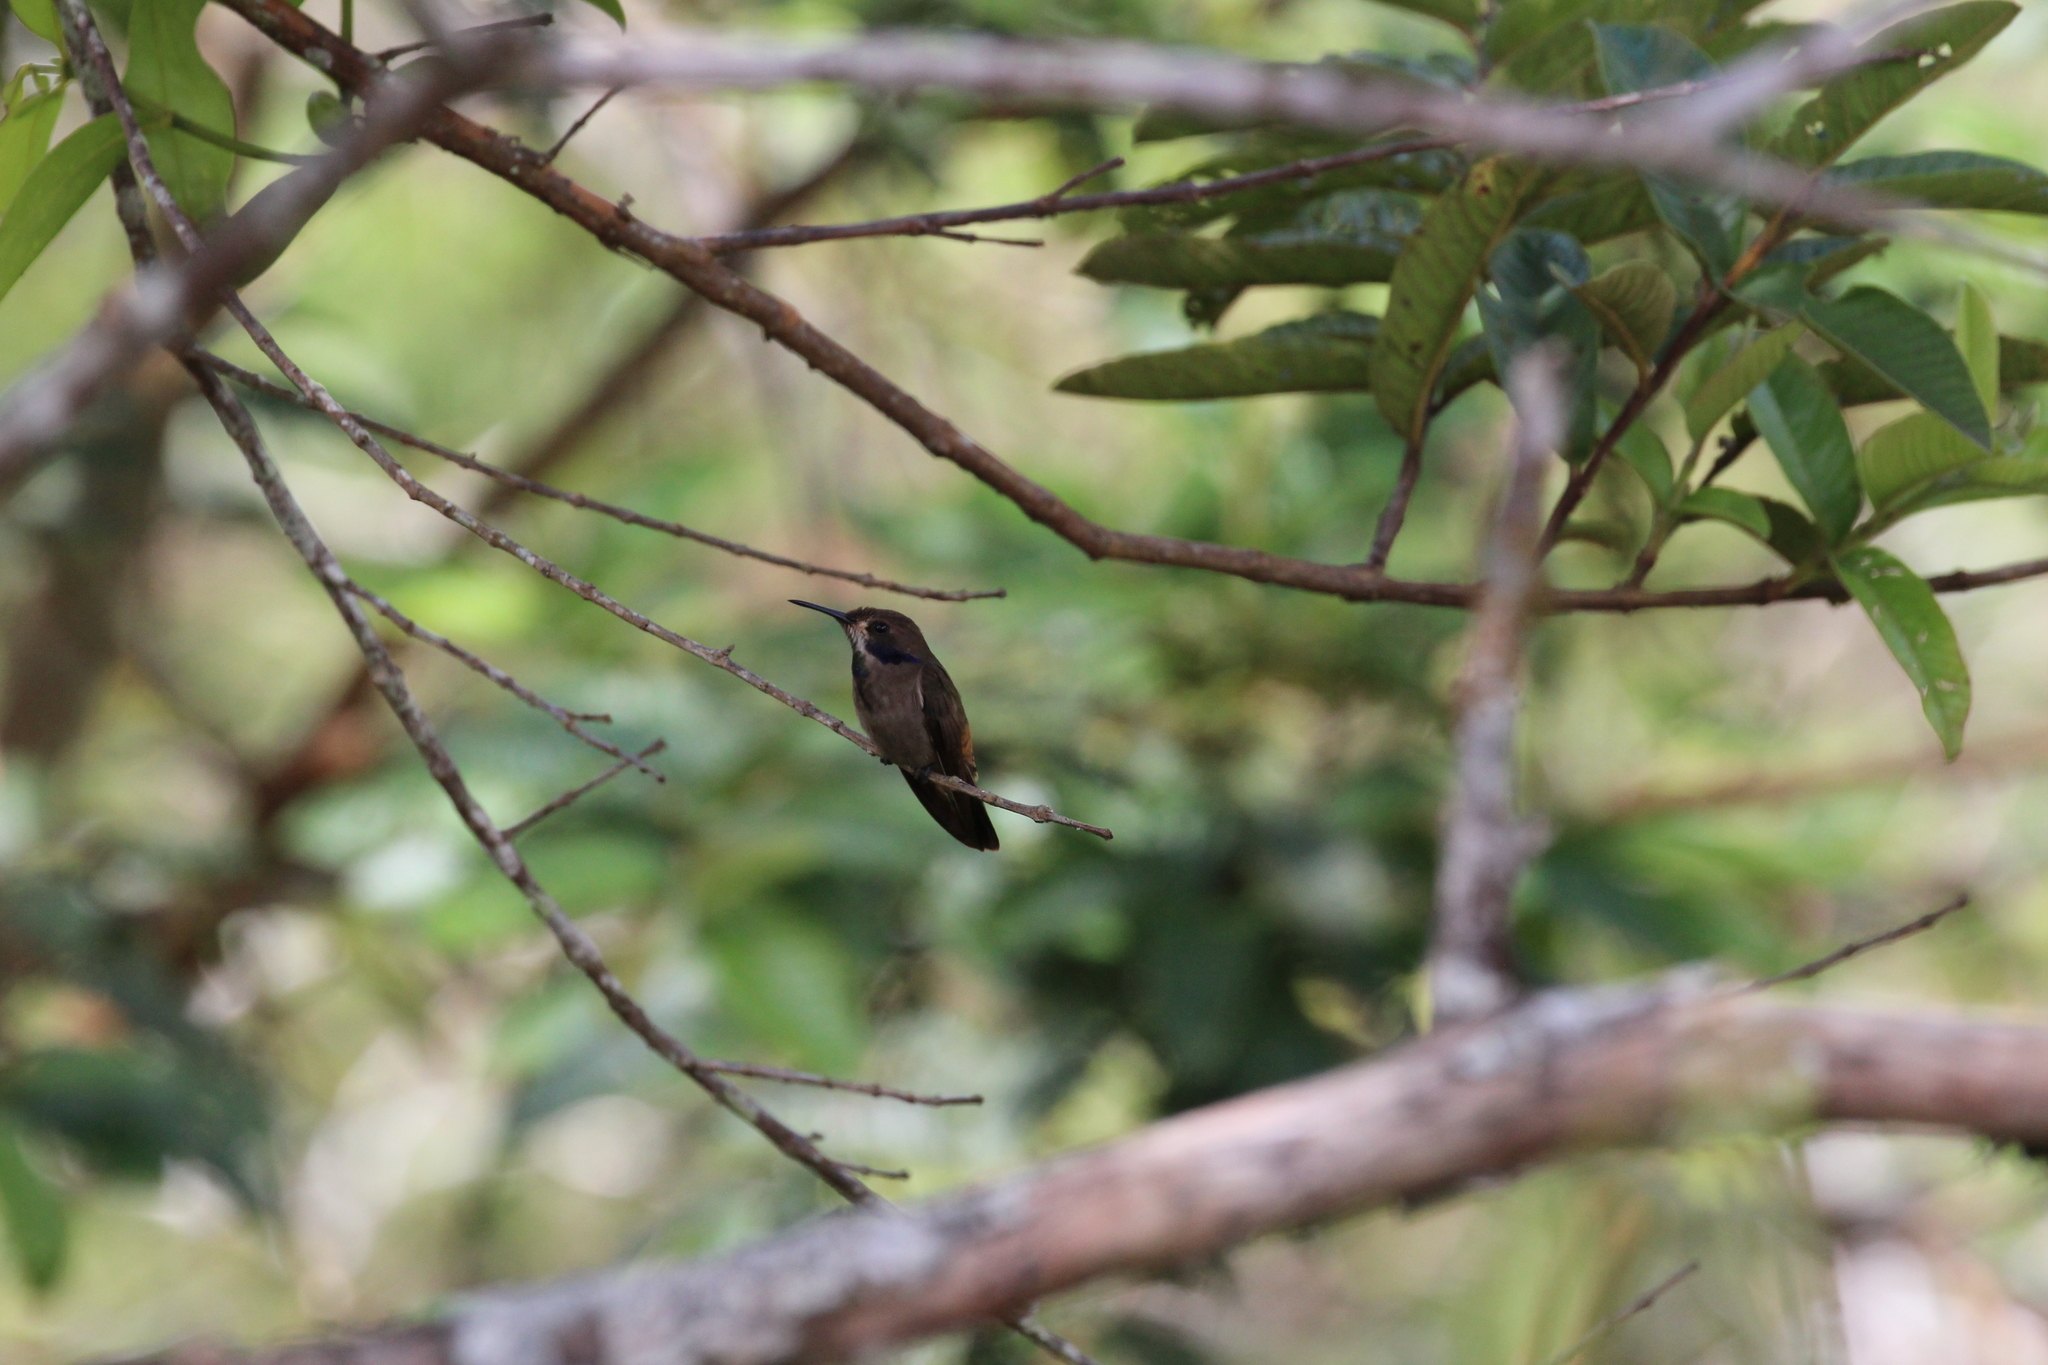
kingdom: Animalia
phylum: Chordata
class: Aves
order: Apodiformes
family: Trochilidae
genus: Colibri
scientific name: Colibri delphinae
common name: Brown violetear
